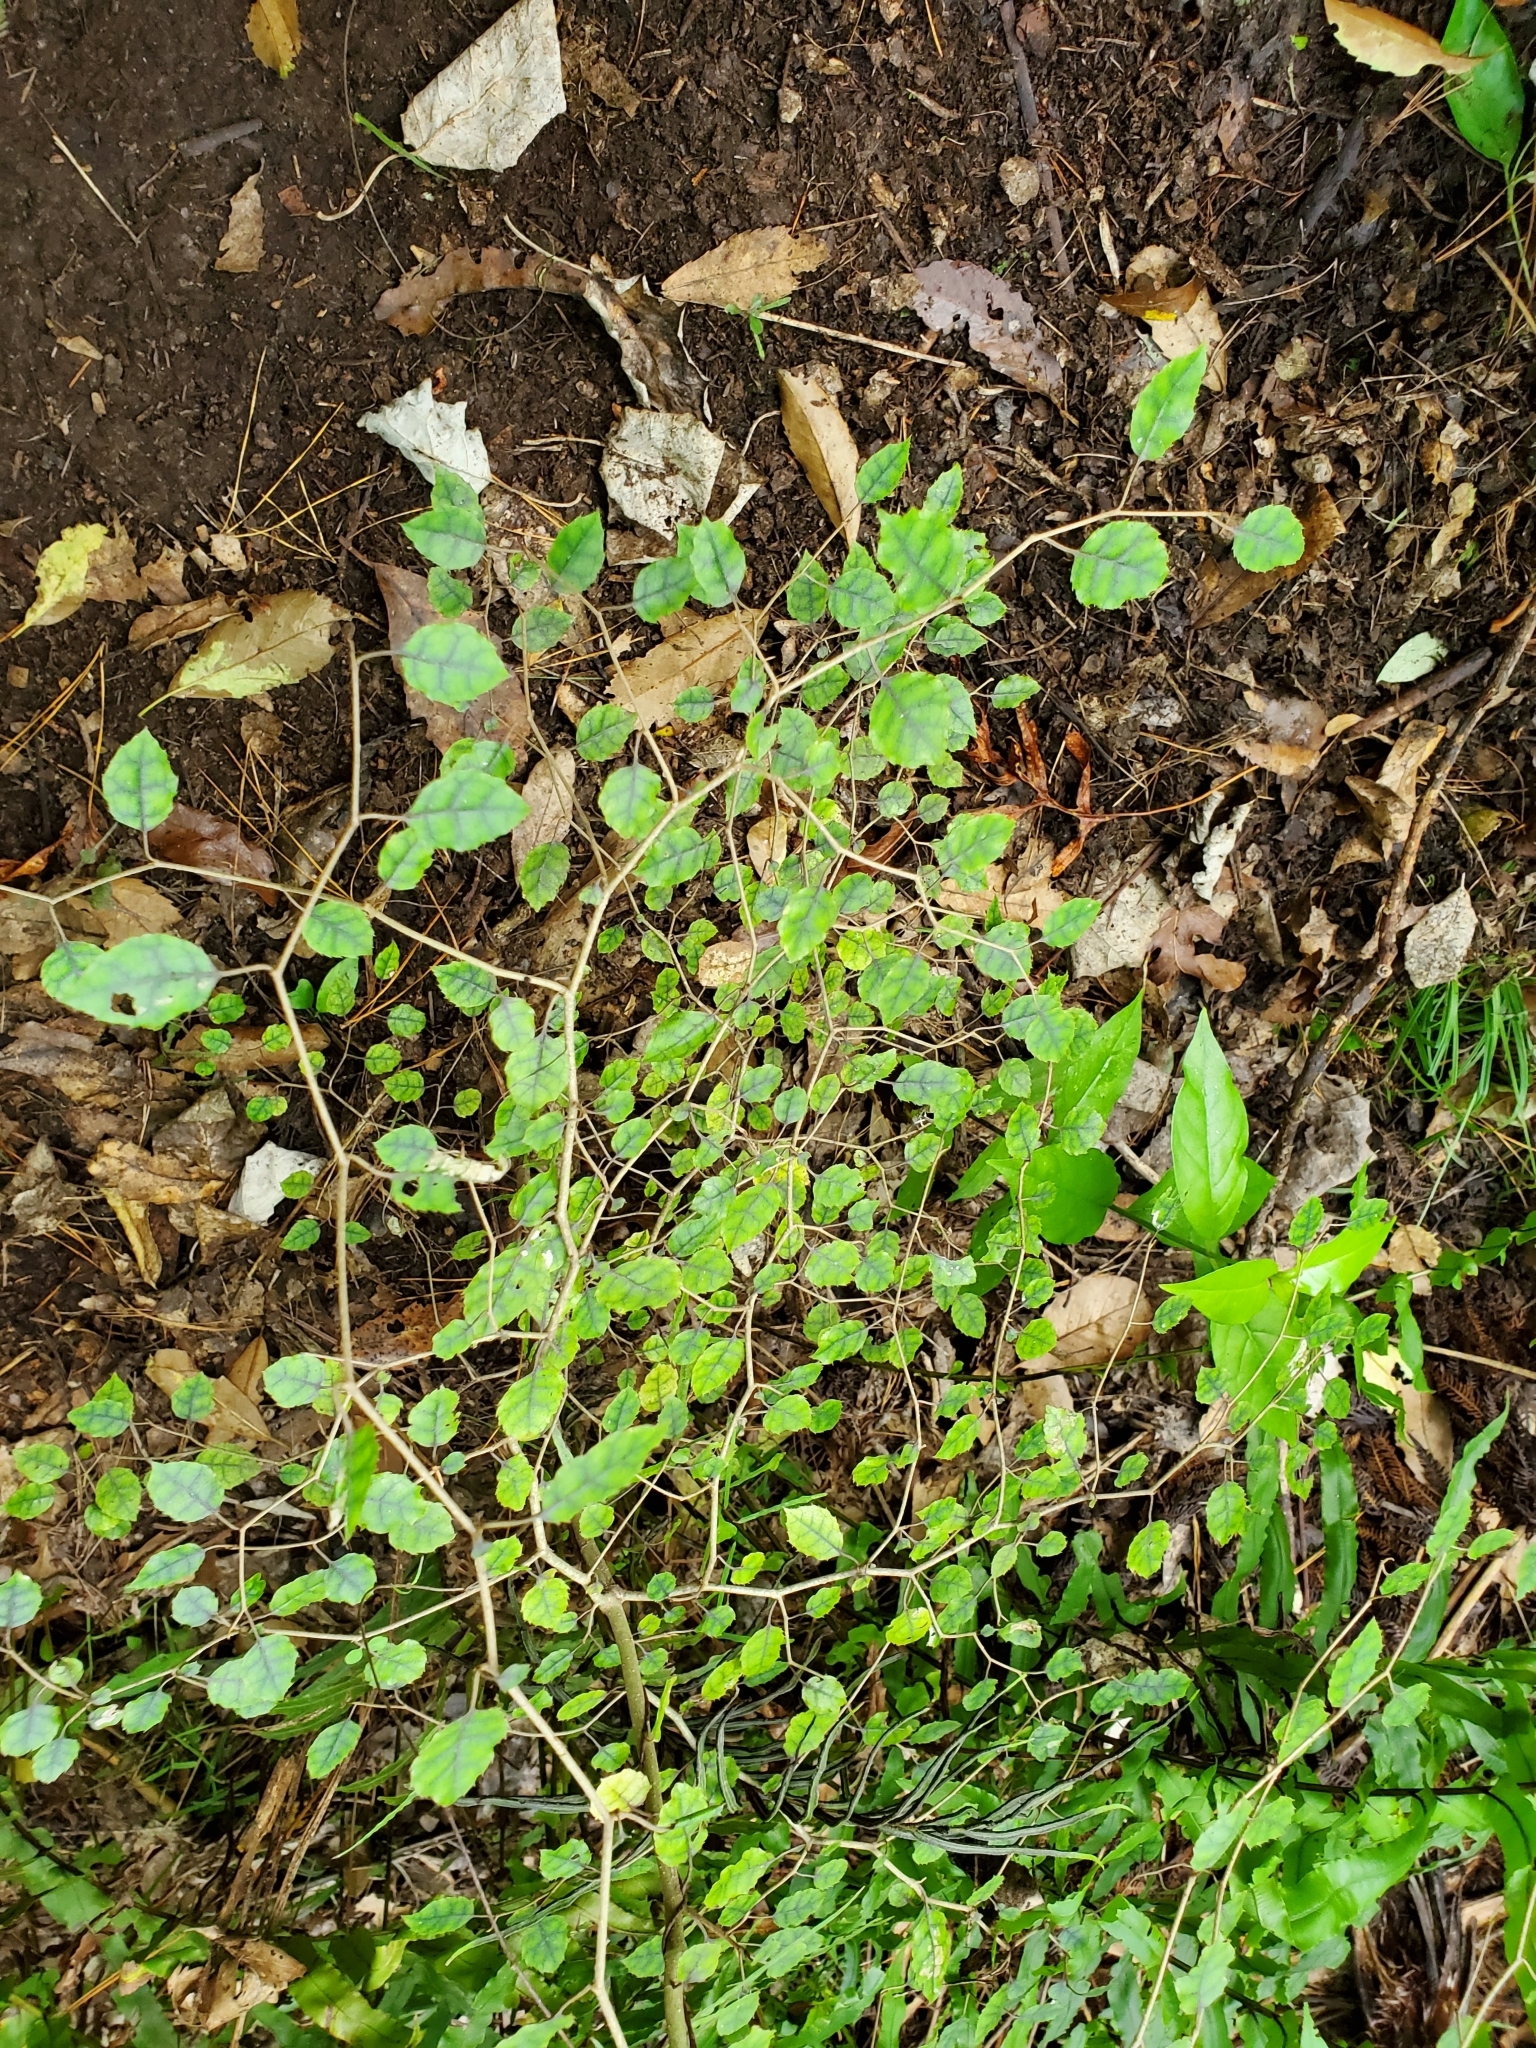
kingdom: Plantae
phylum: Tracheophyta
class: Magnoliopsida
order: Asterales
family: Rousseaceae
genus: Carpodetus
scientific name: Carpodetus serratus
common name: White mapau
